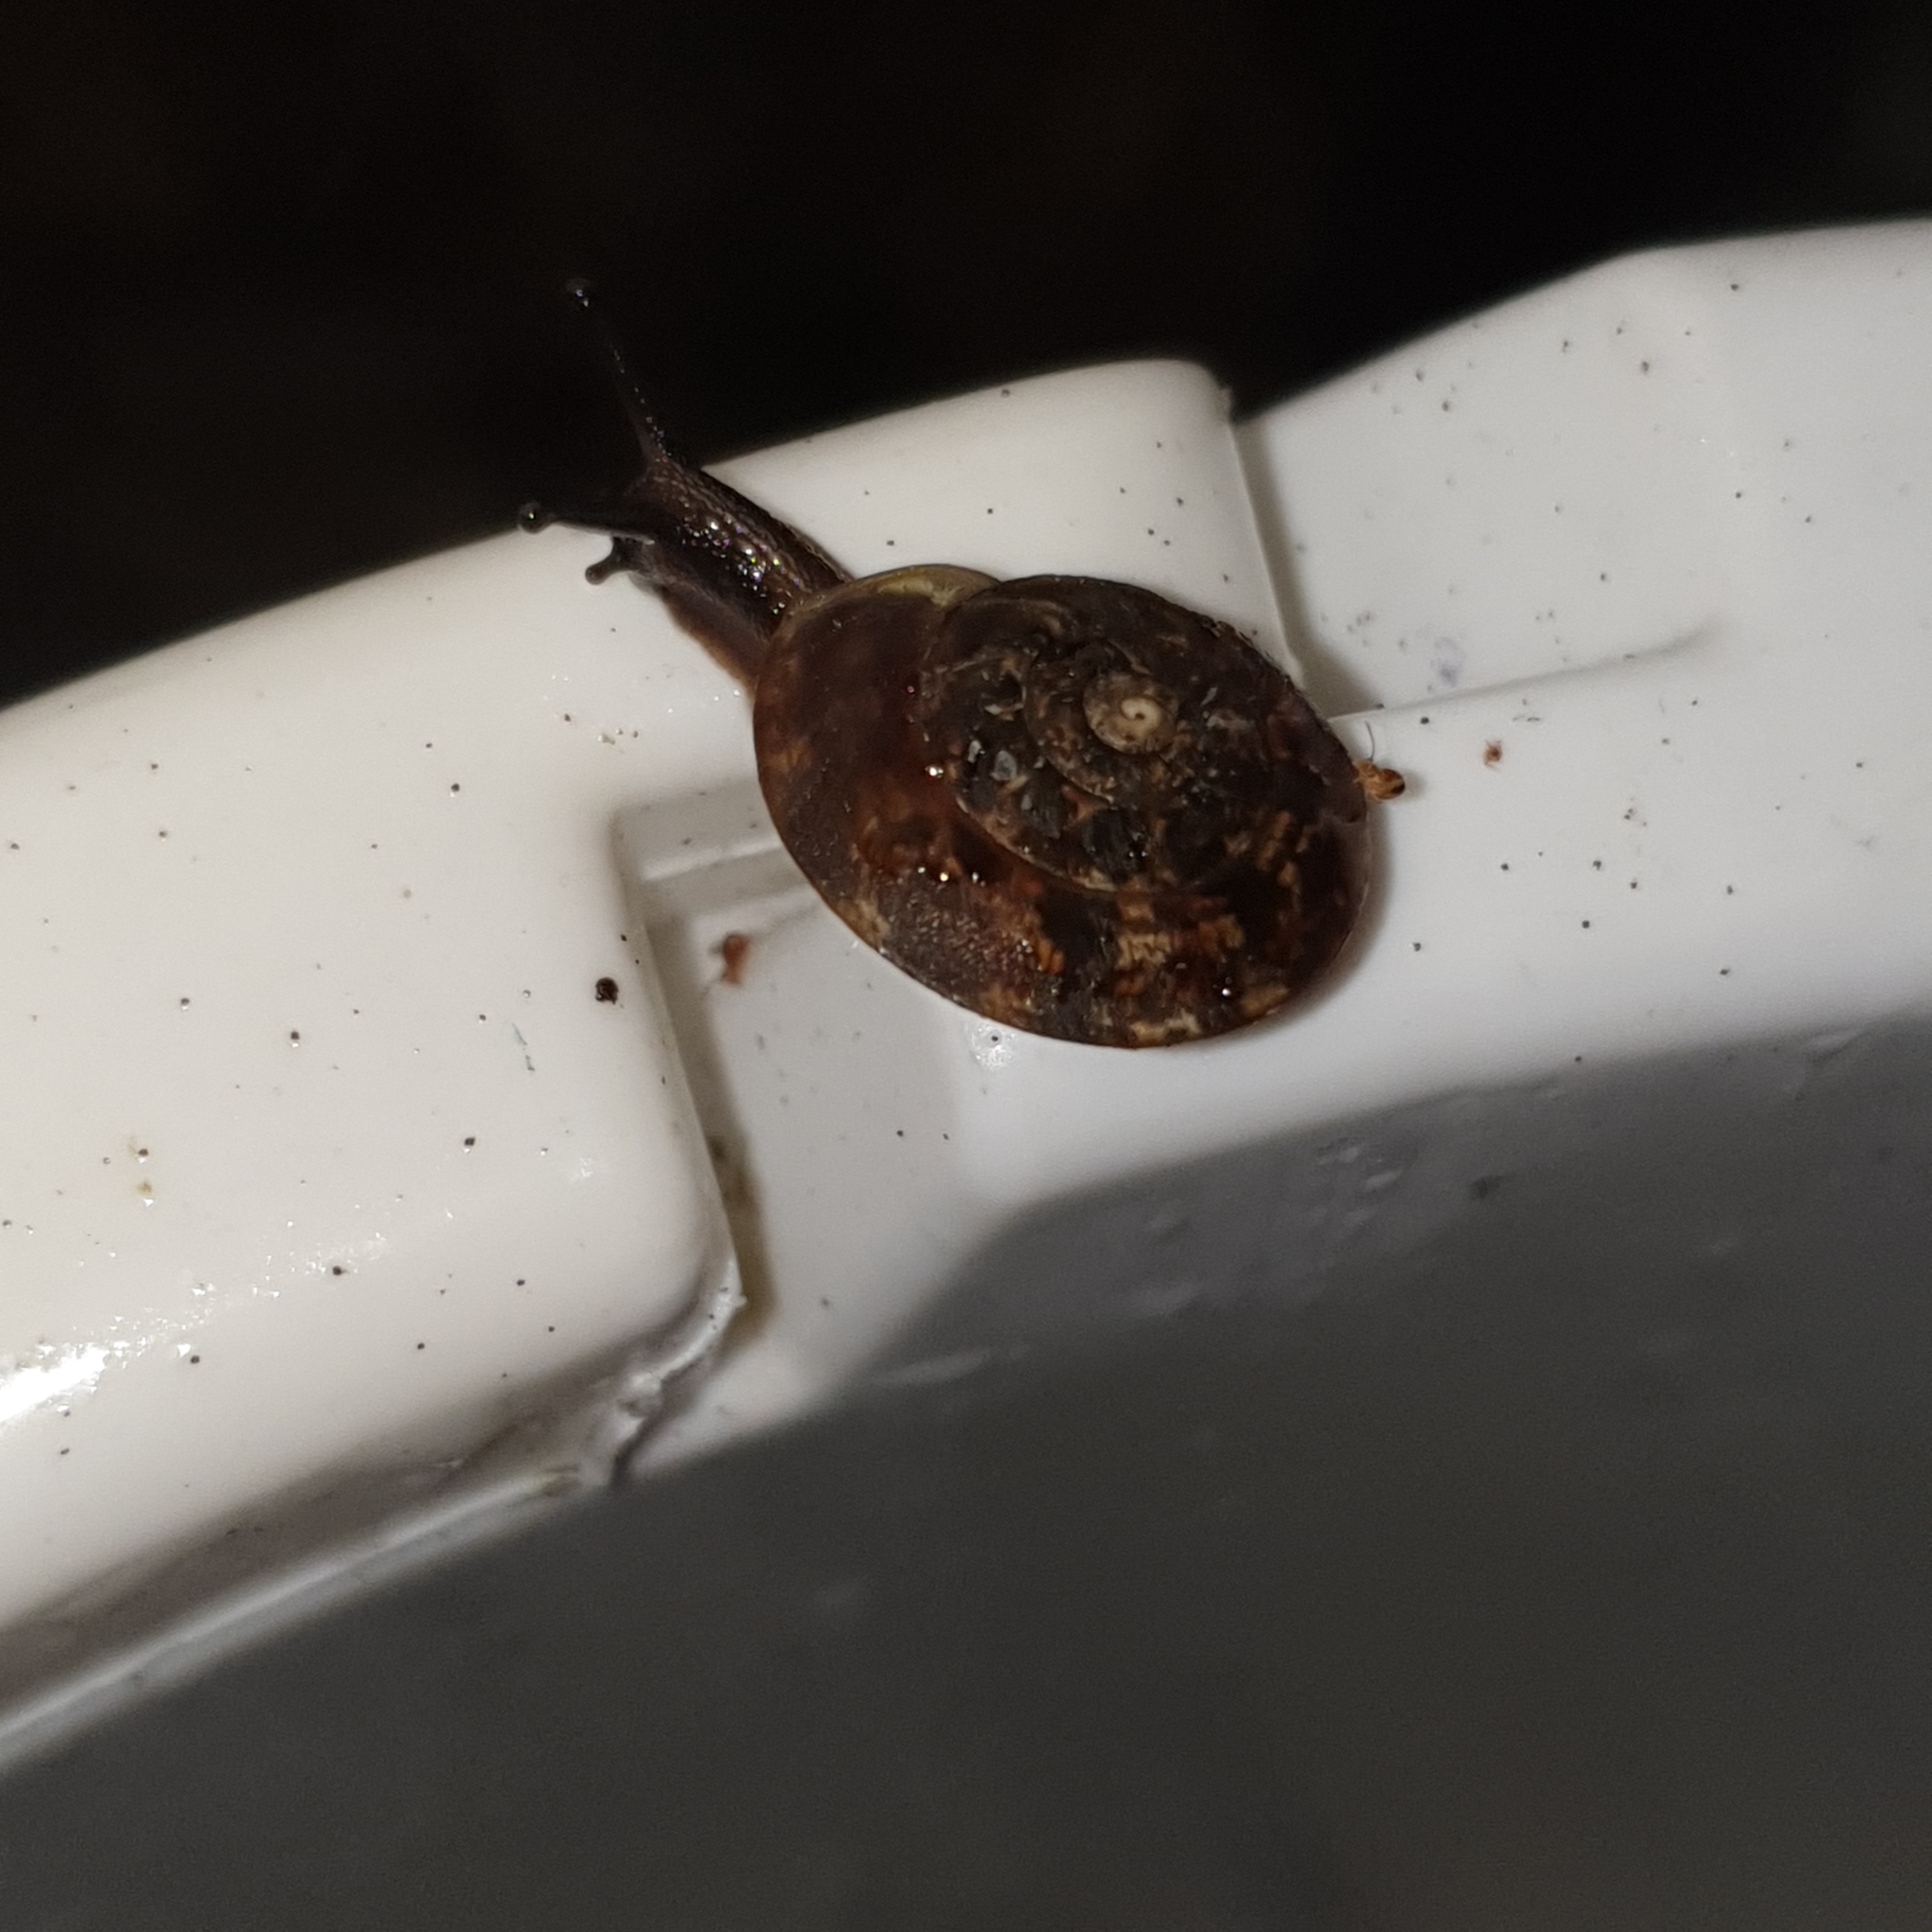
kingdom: Animalia
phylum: Mollusca
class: Gastropoda
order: Stylommatophora
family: Helicidae
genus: Helicigona
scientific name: Helicigona lapicida
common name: Lapidary snail
